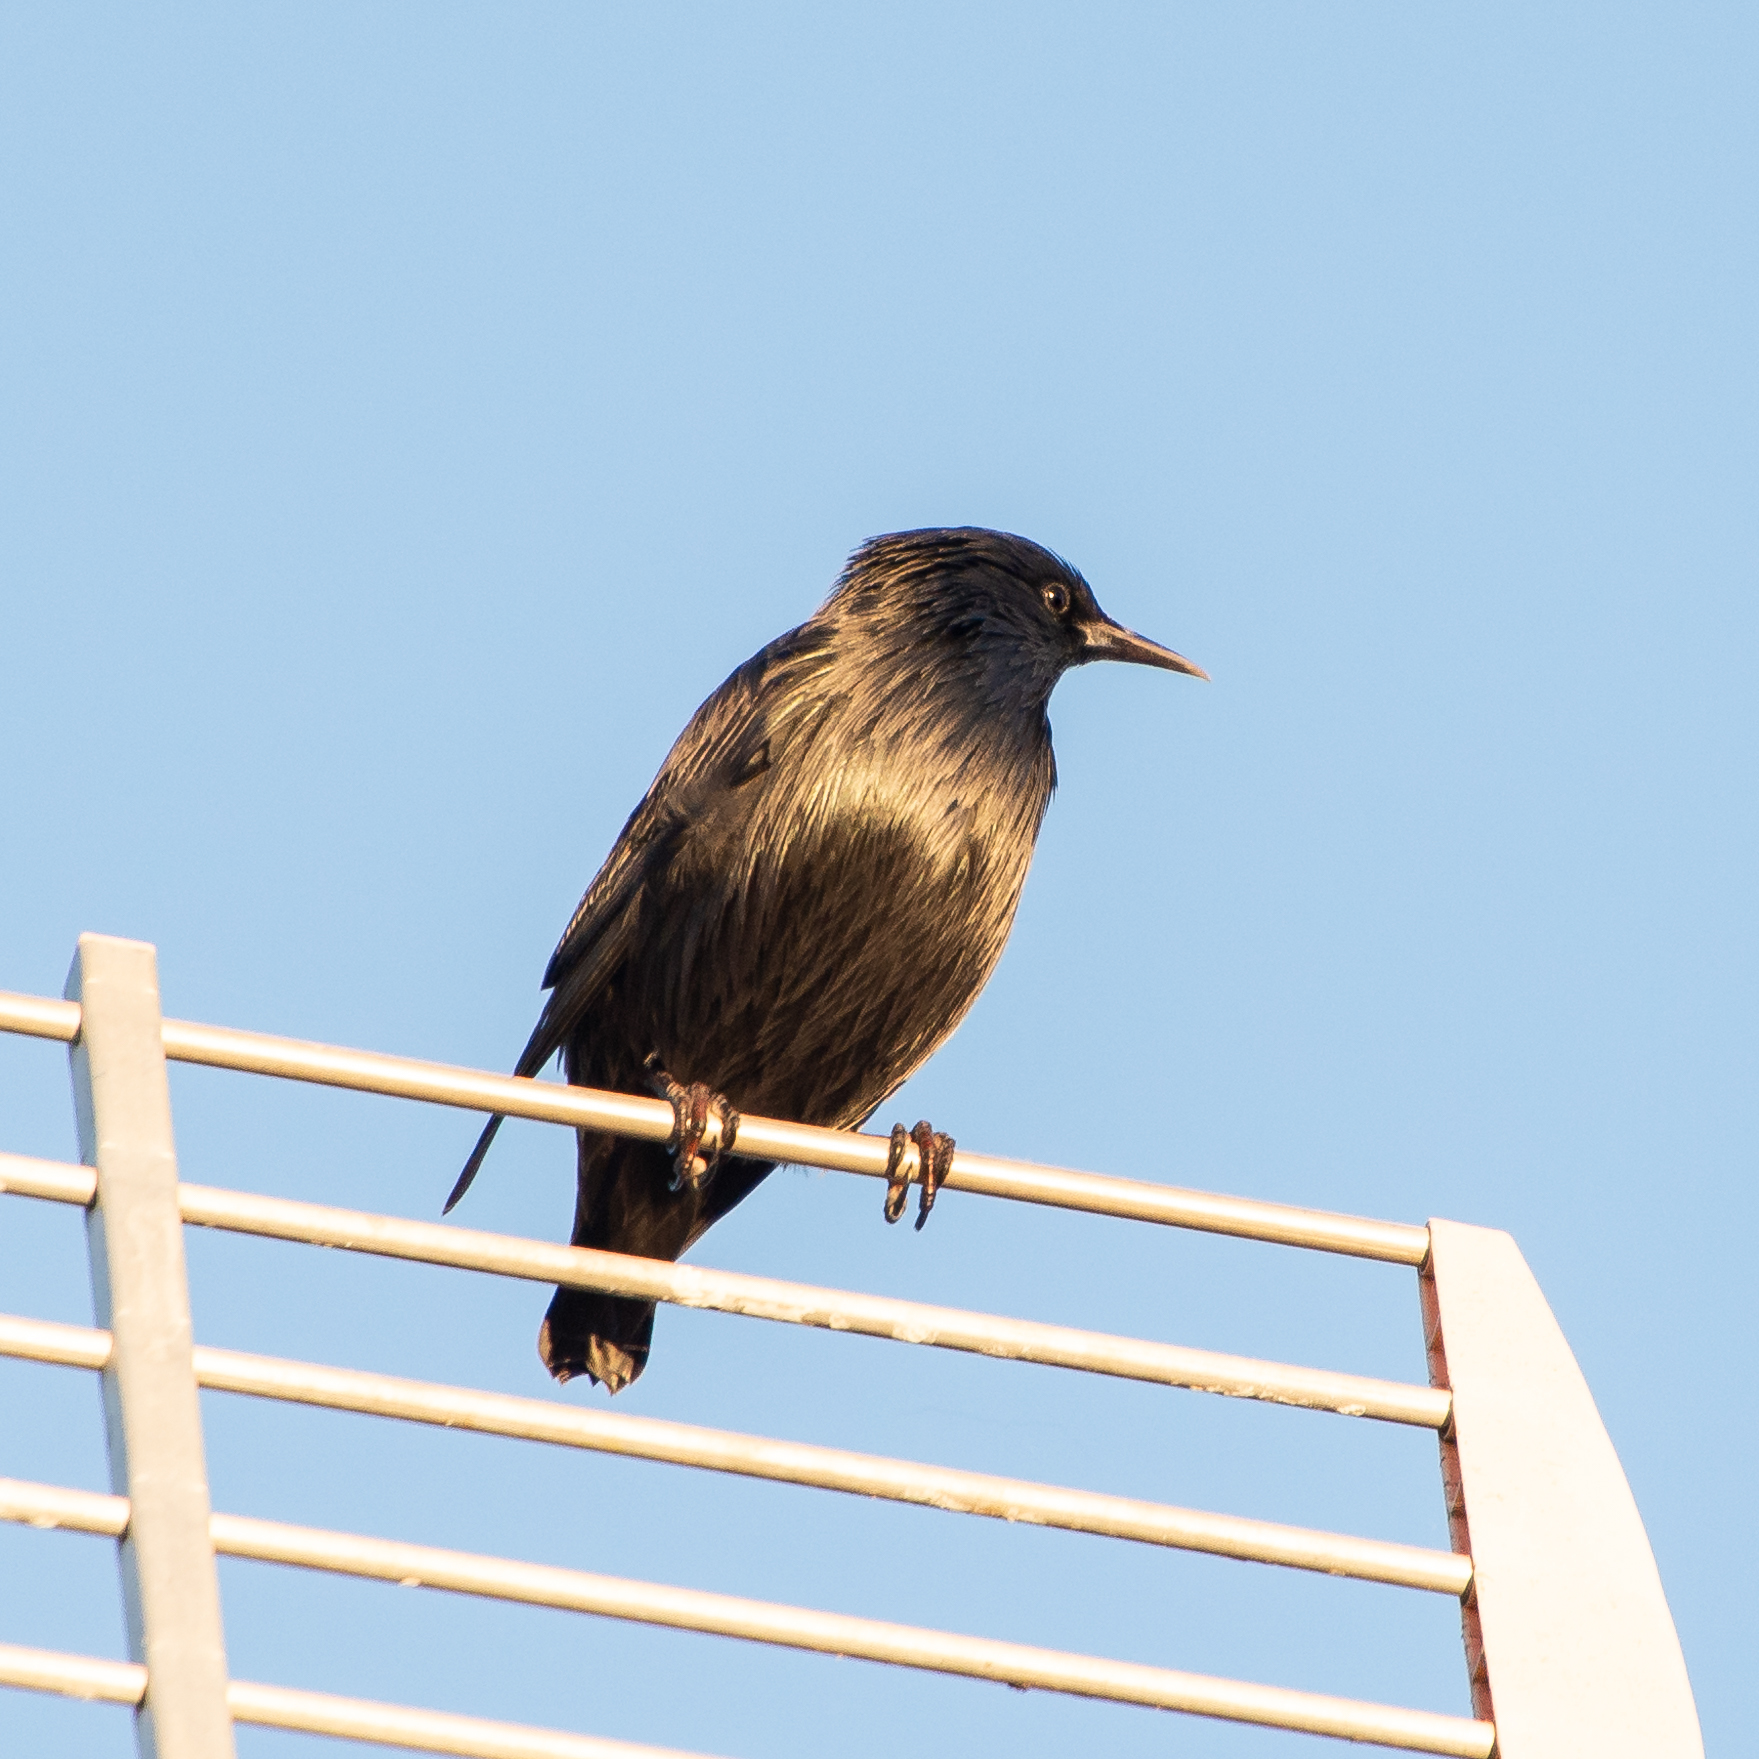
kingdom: Animalia
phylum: Chordata
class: Aves
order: Passeriformes
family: Sturnidae
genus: Sturnus
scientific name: Sturnus unicolor
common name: Spotless starling
